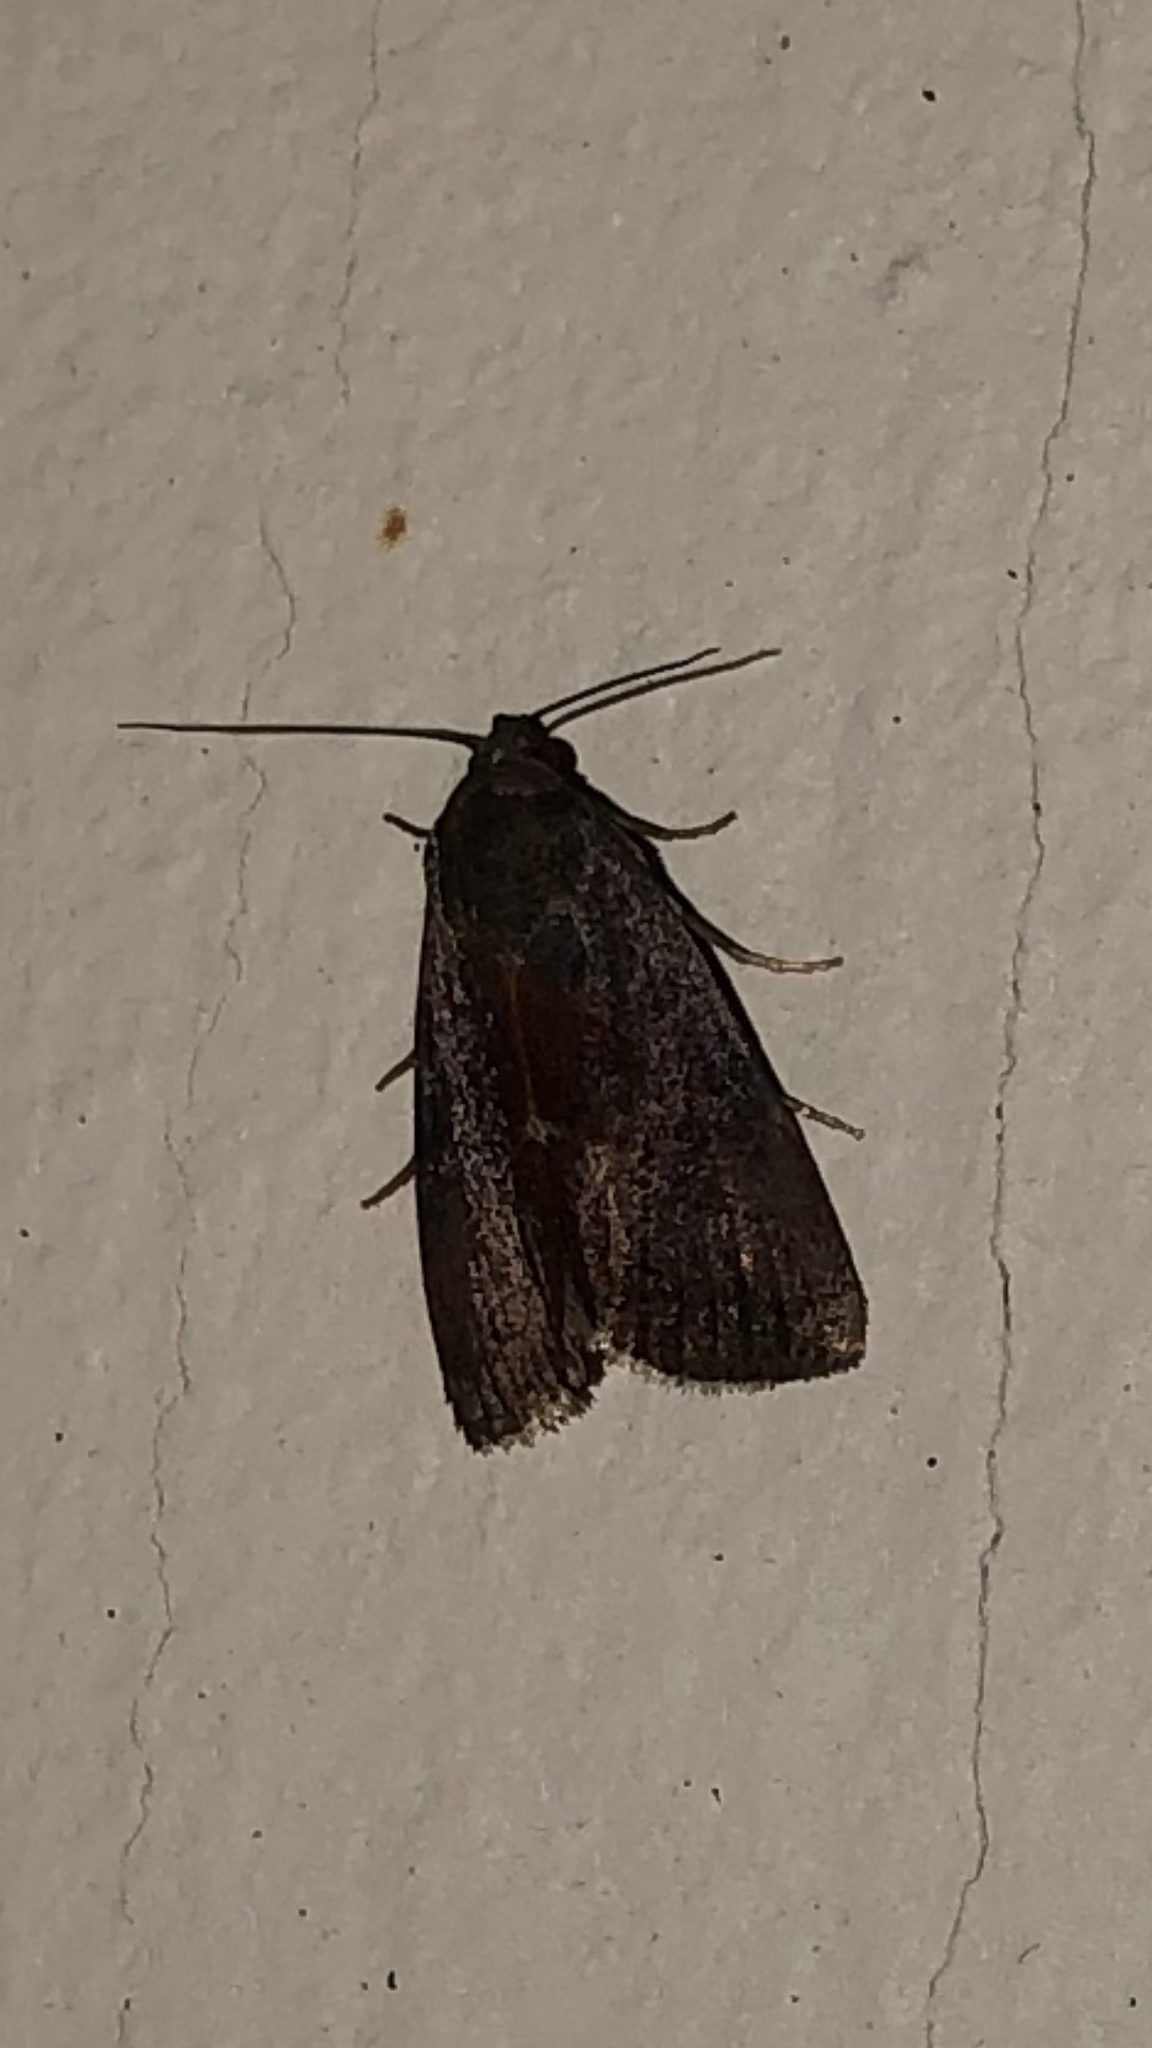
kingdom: Animalia
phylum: Arthropoda
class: Insecta
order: Lepidoptera
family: Noctuidae
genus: Galgula
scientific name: Galgula partita
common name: Wedgeling
